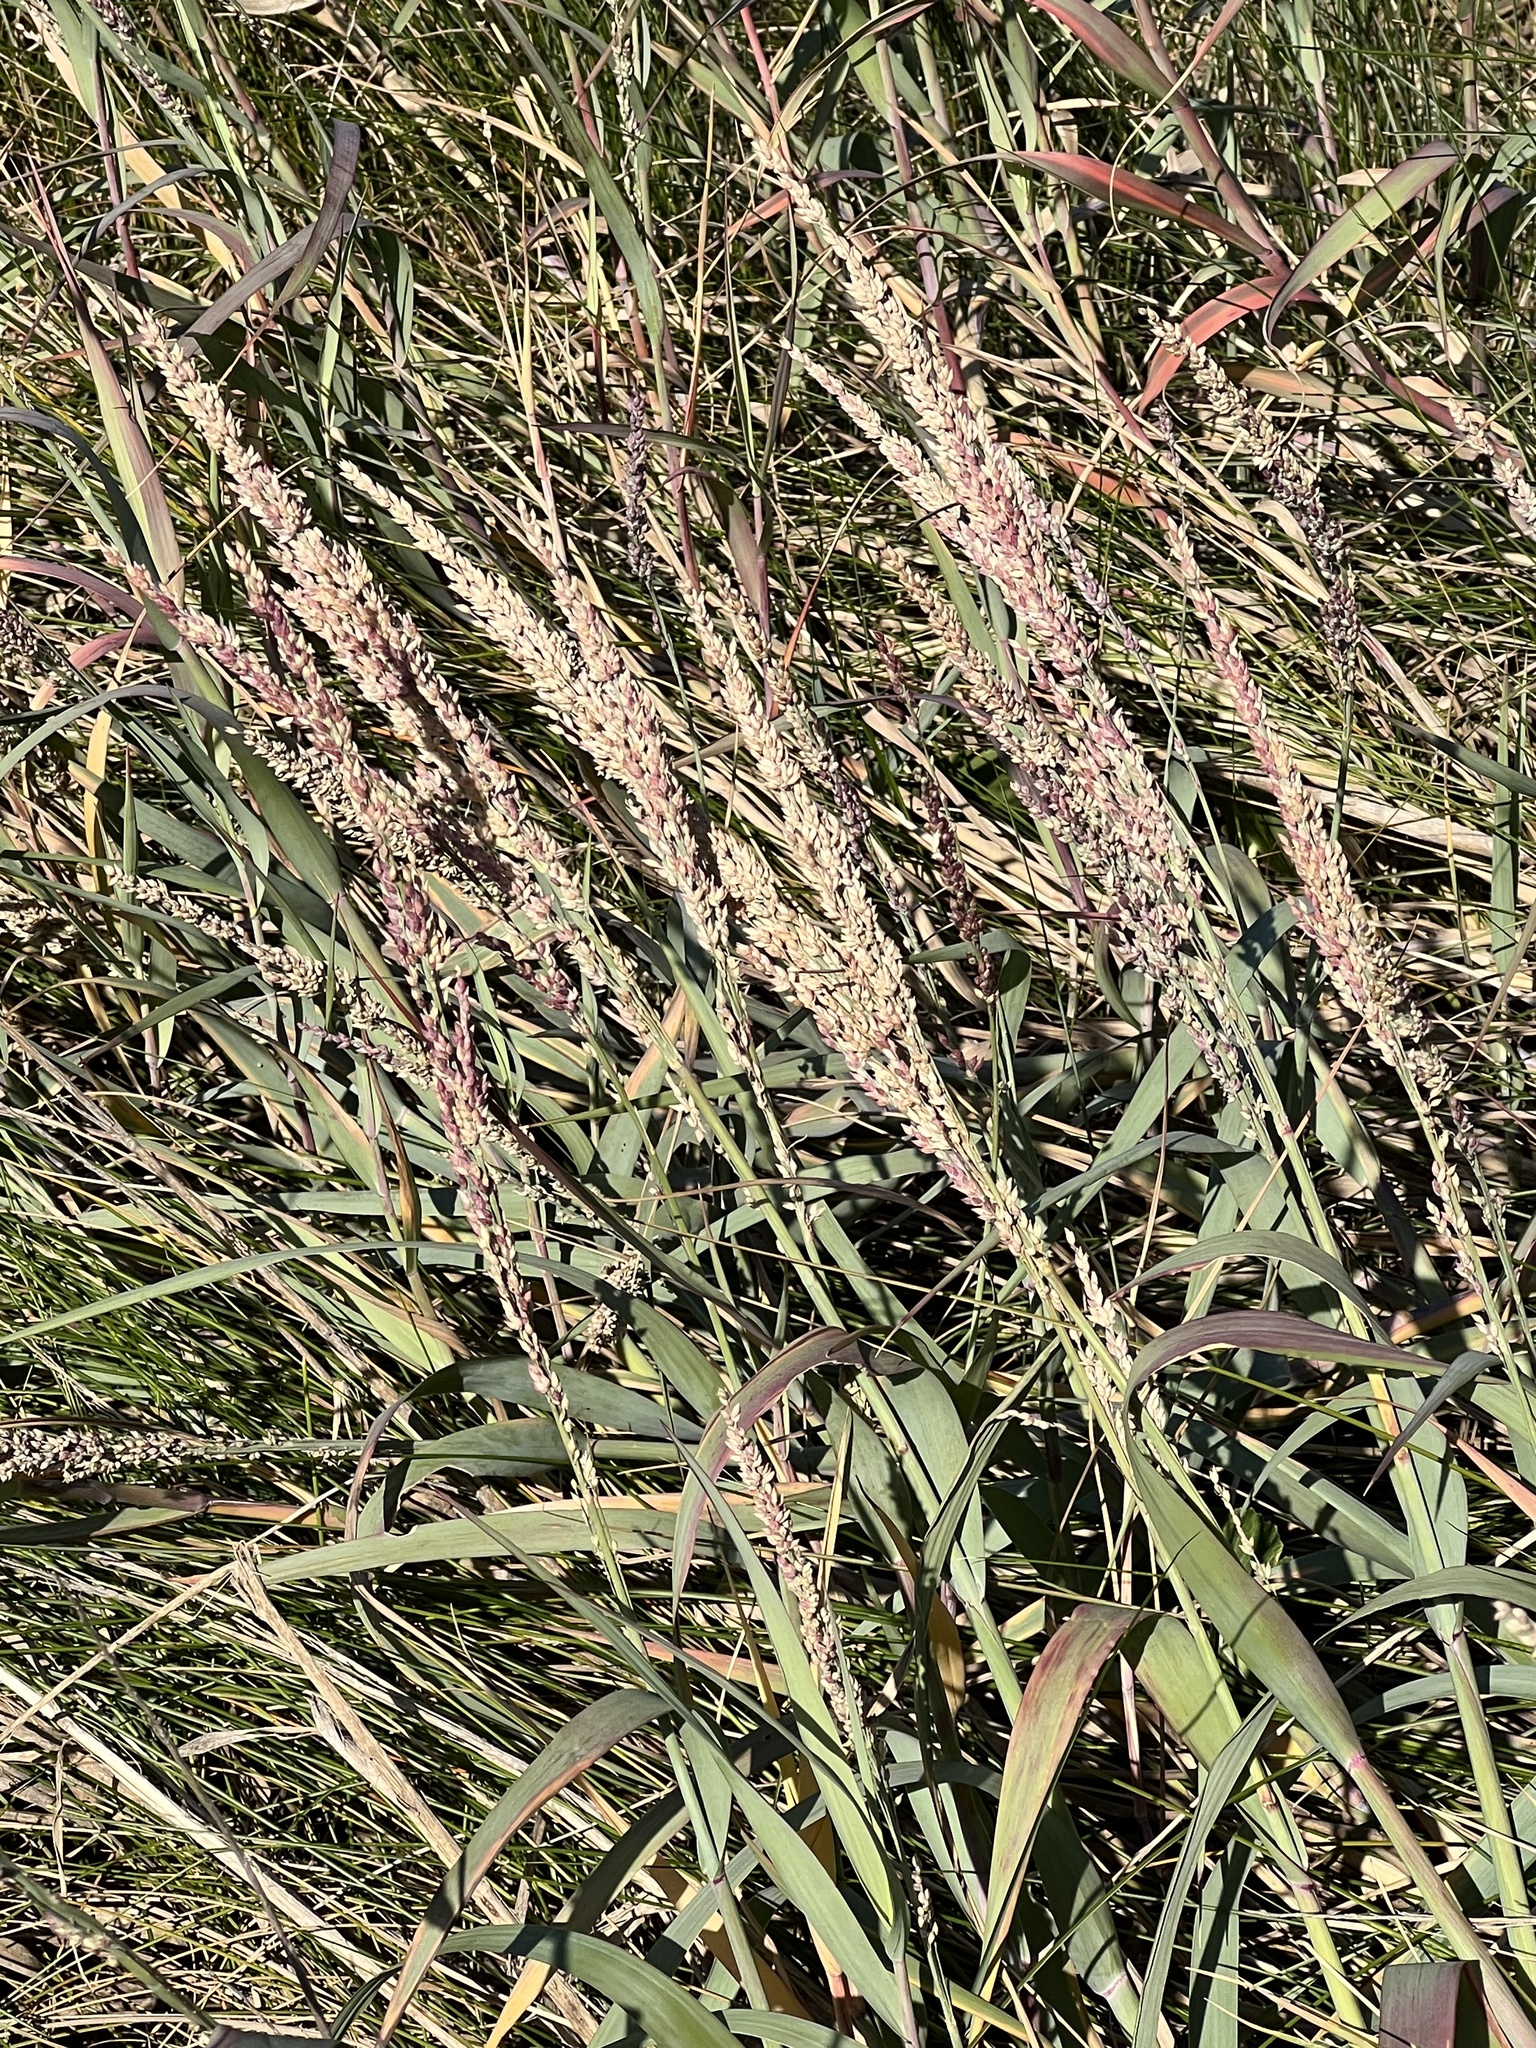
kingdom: Plantae
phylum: Tracheophyta
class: Liliopsida
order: Poales
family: Poaceae
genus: Panicum
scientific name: Panicum amarum
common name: Bitter panicum
